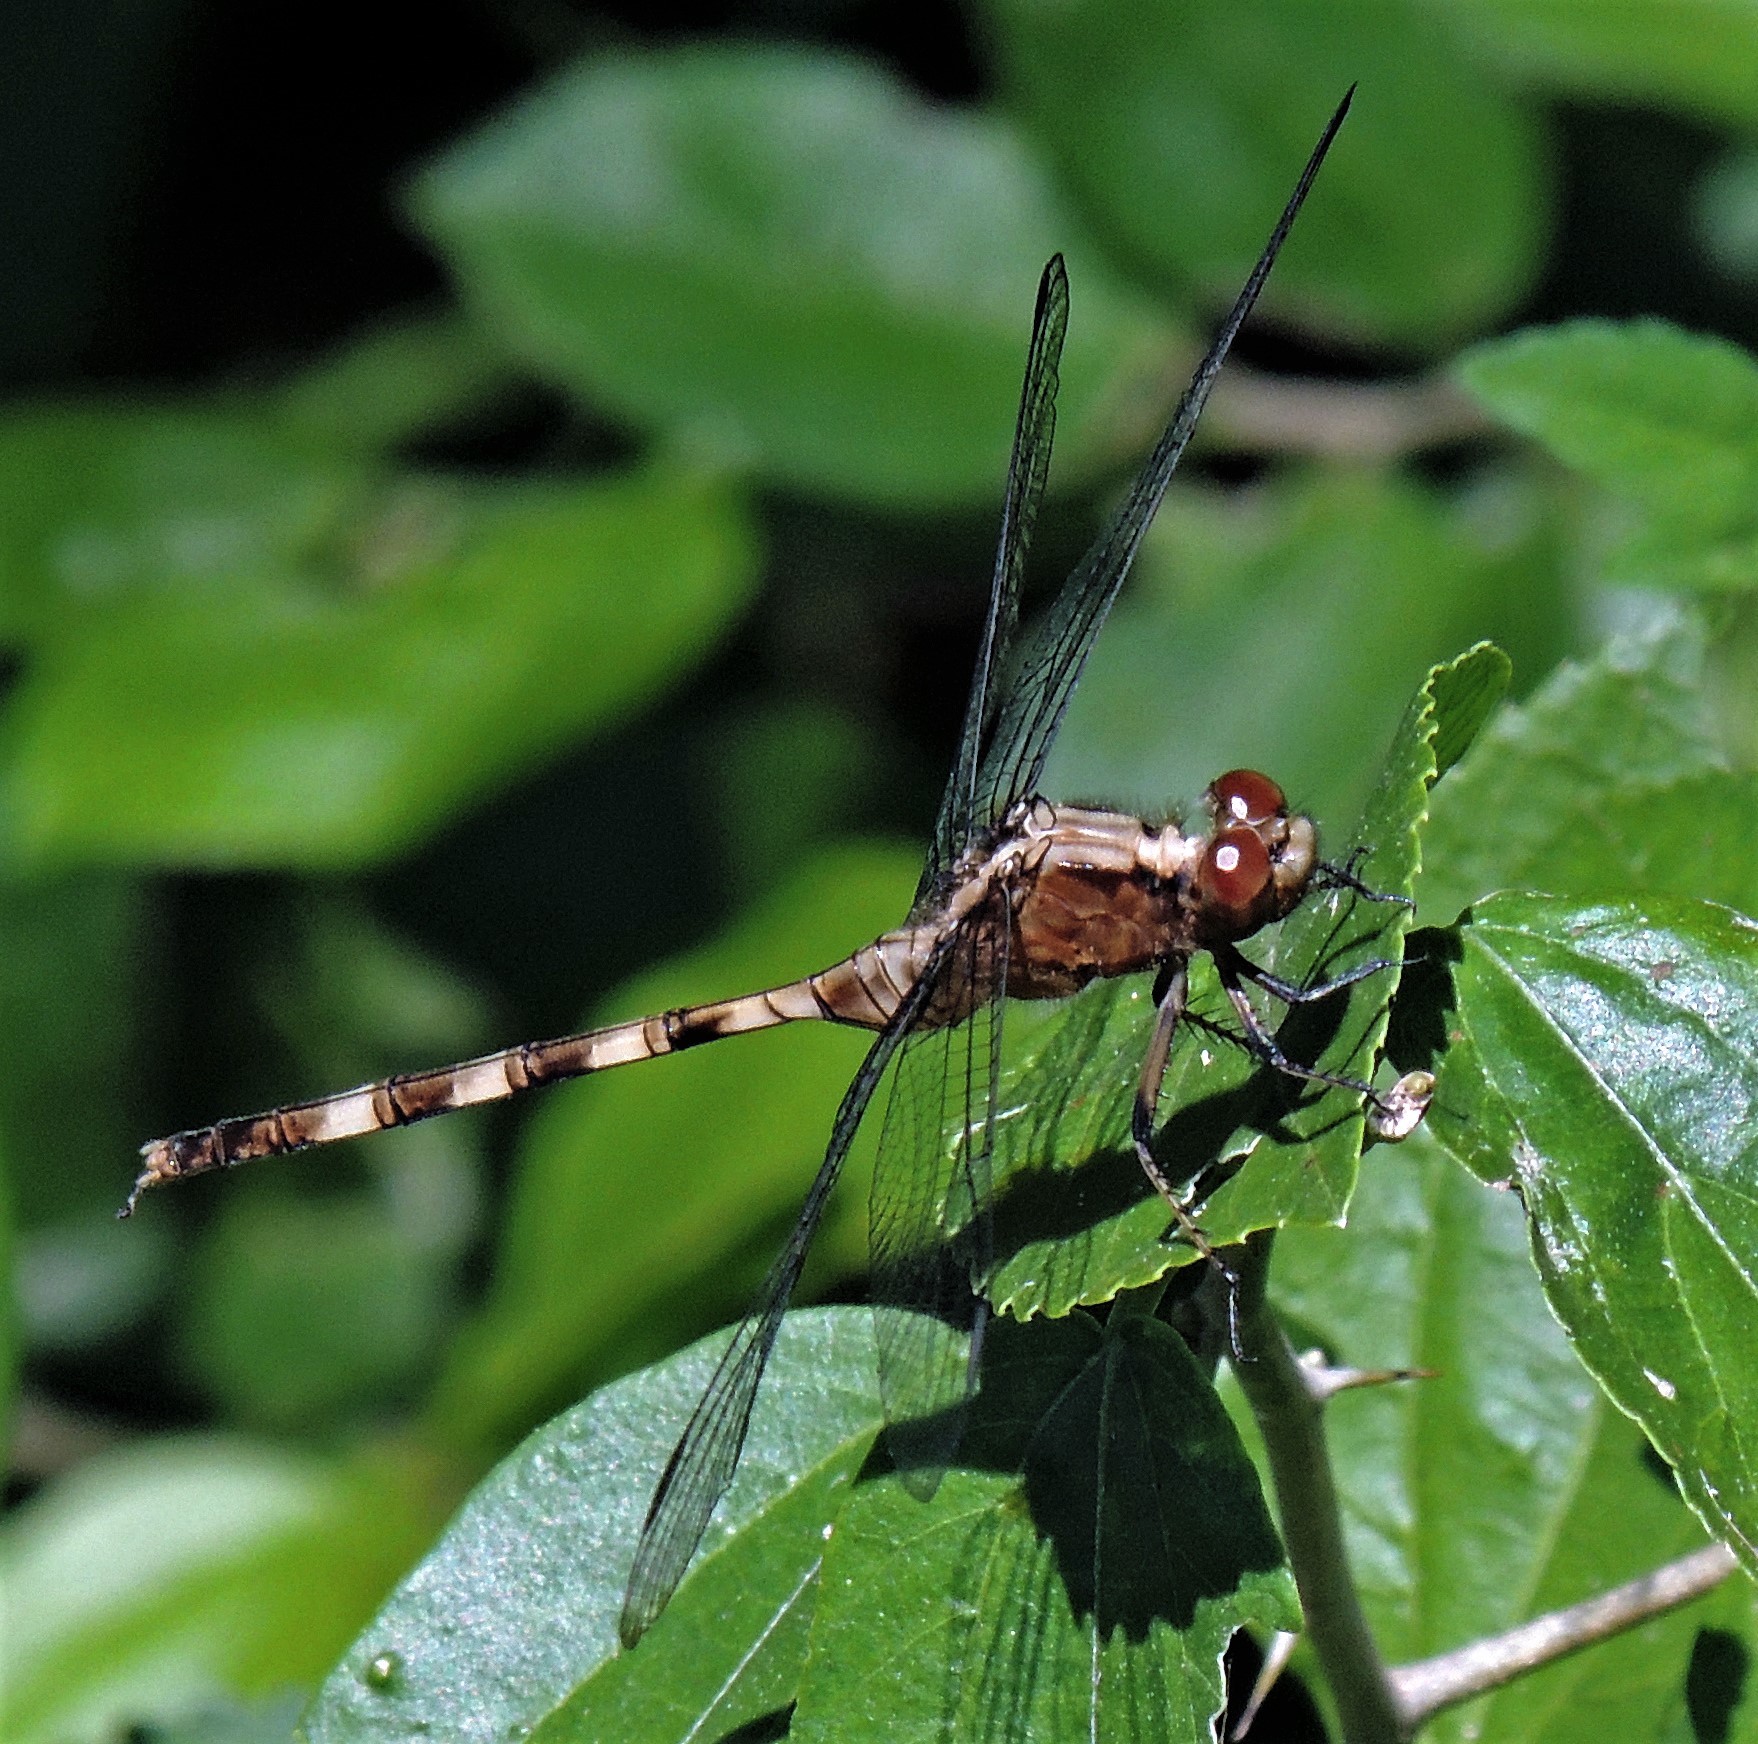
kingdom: Animalia
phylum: Arthropoda
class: Insecta
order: Odonata
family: Libellulidae
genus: Erythemis
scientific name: Erythemis plebeja
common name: Pin-tailed pondhawk
